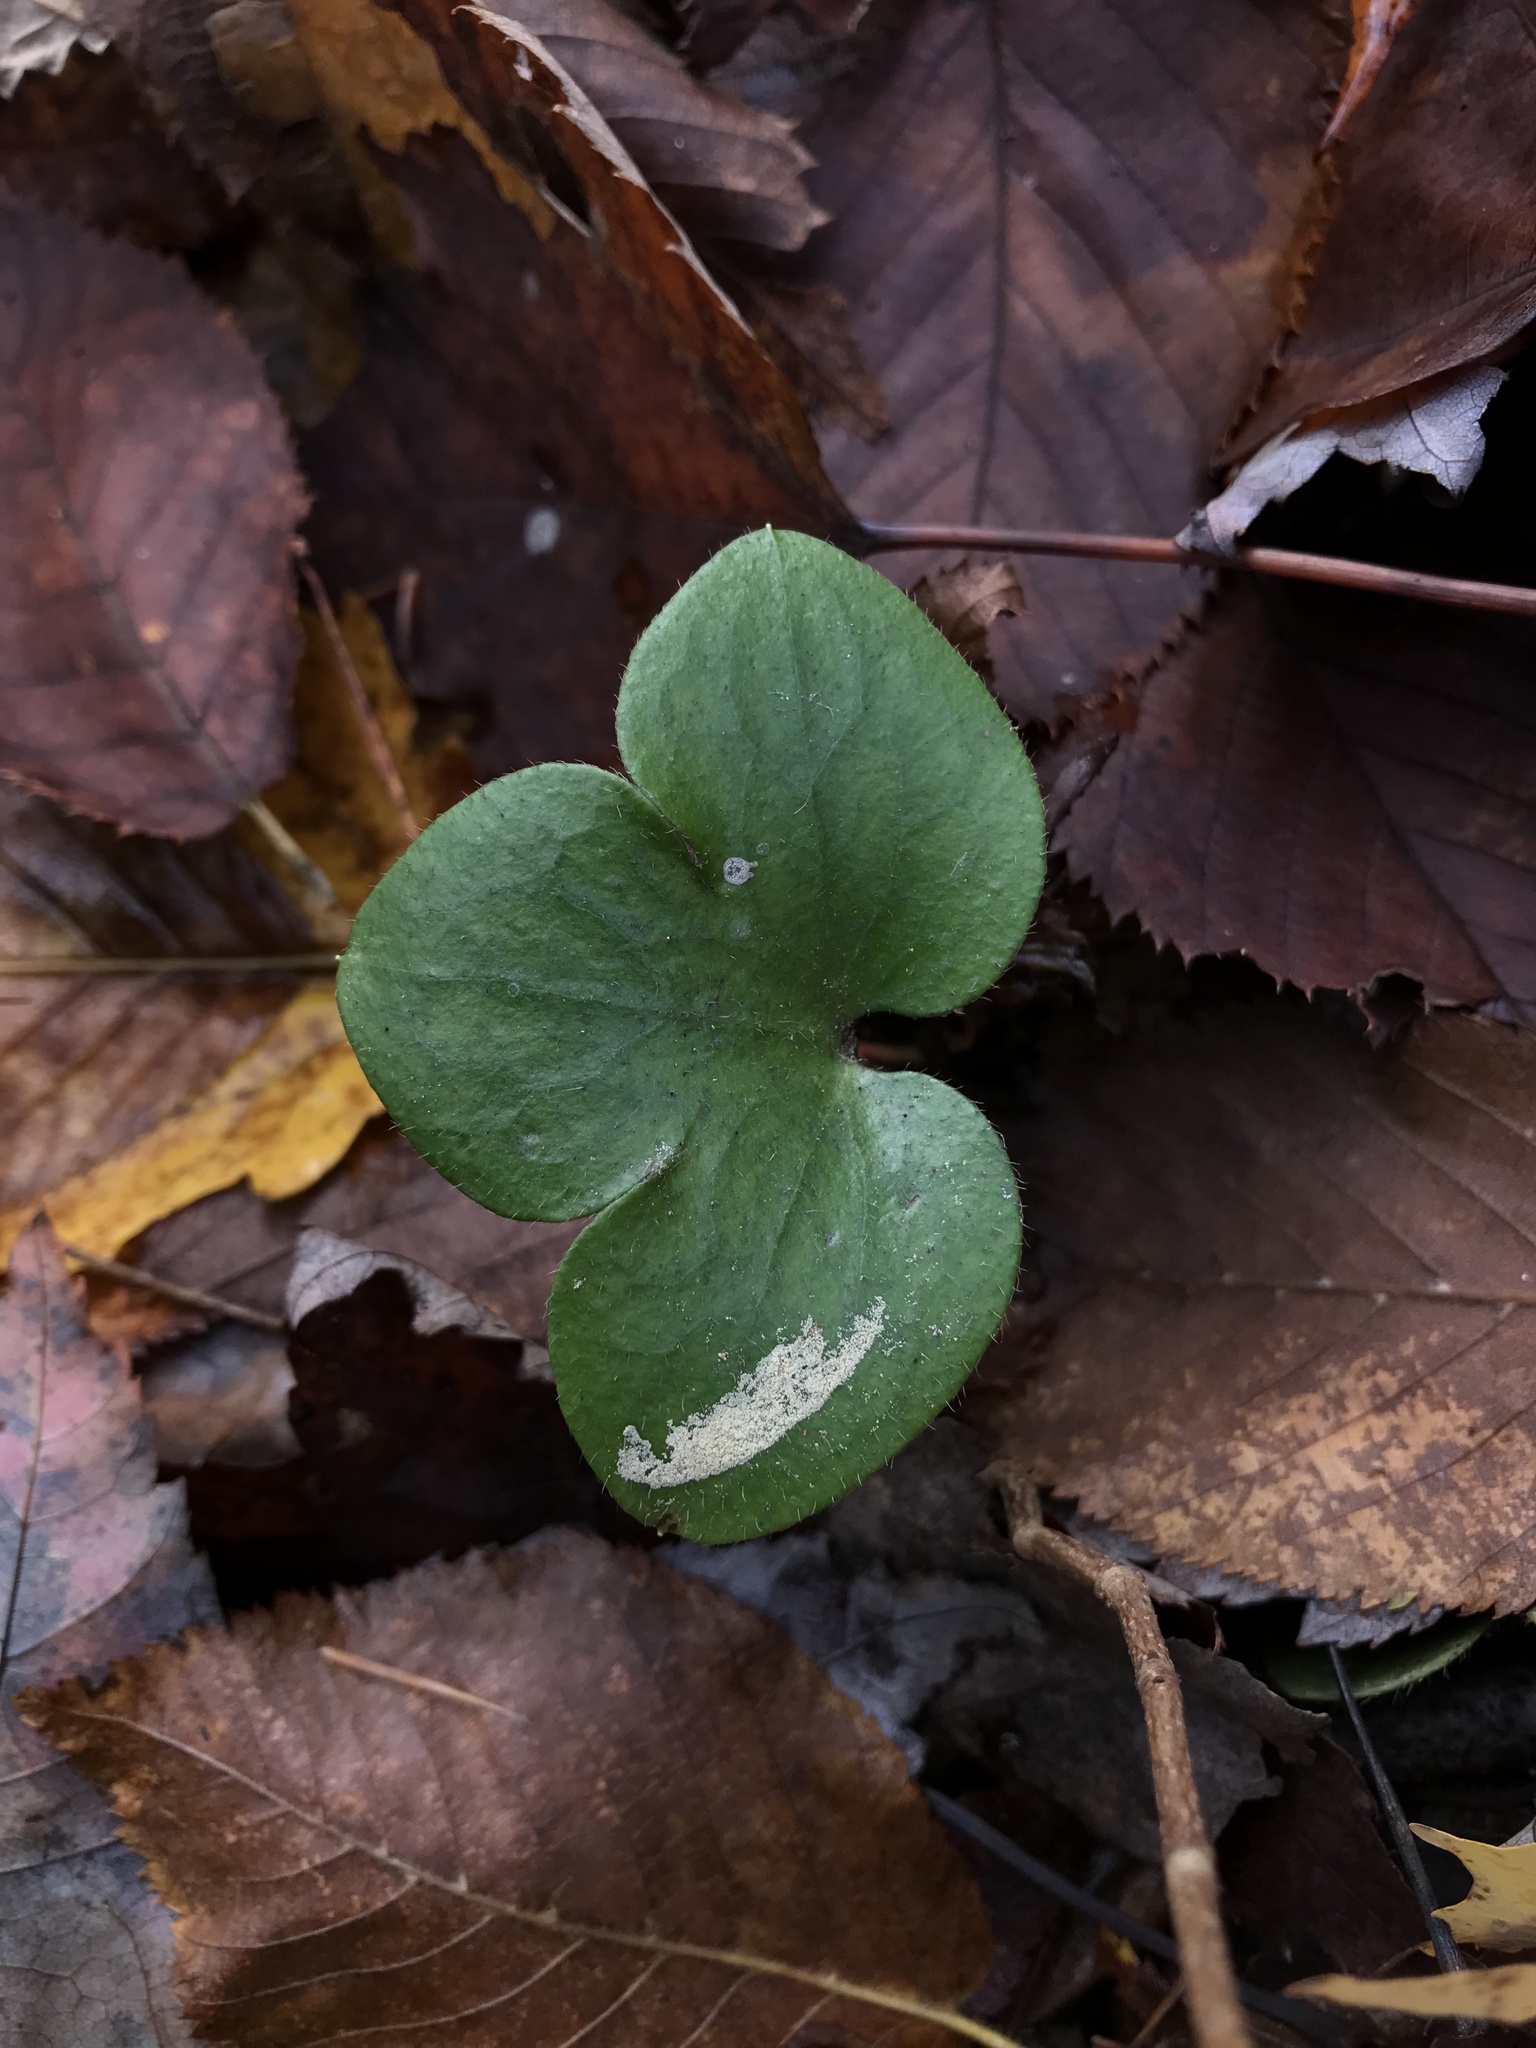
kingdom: Plantae
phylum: Tracheophyta
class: Magnoliopsida
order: Ranunculales
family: Ranunculaceae
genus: Hepatica
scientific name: Hepatica americana
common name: American hepatica
